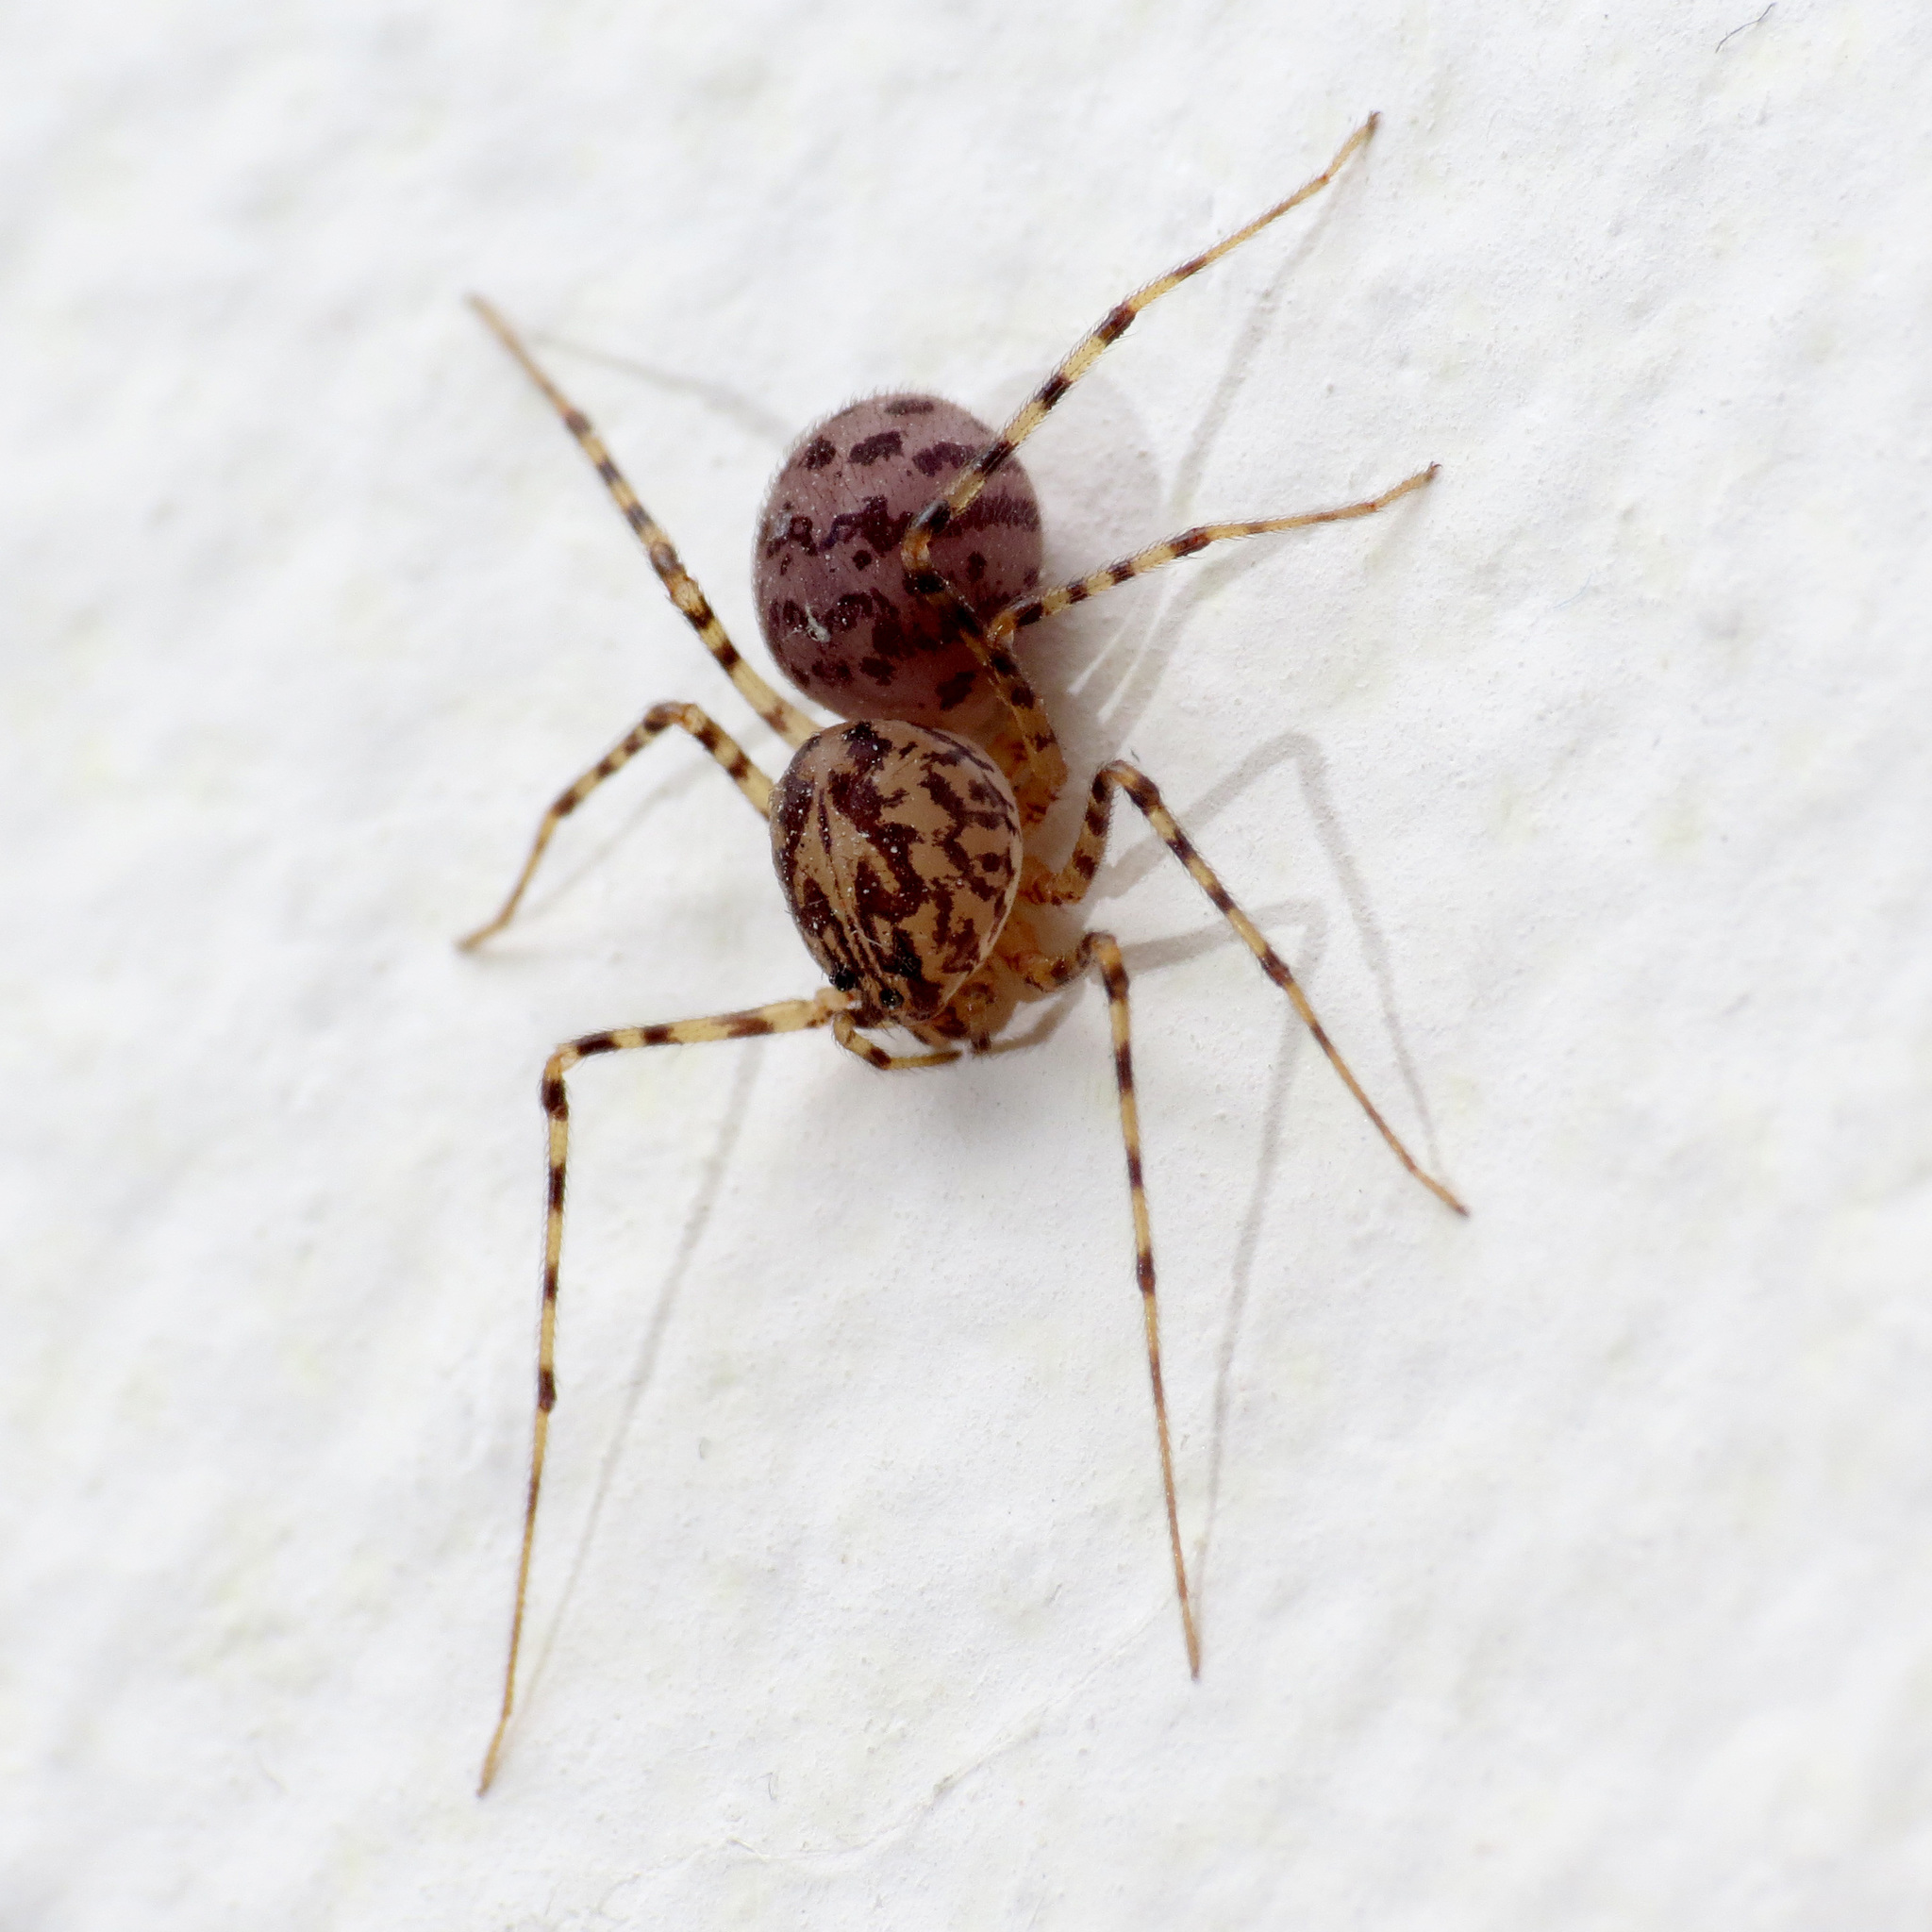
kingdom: Animalia
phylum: Arthropoda
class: Arachnida
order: Araneae
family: Scytodidae
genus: Scytodes
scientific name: Scytodes thoracica
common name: Spitting spider
